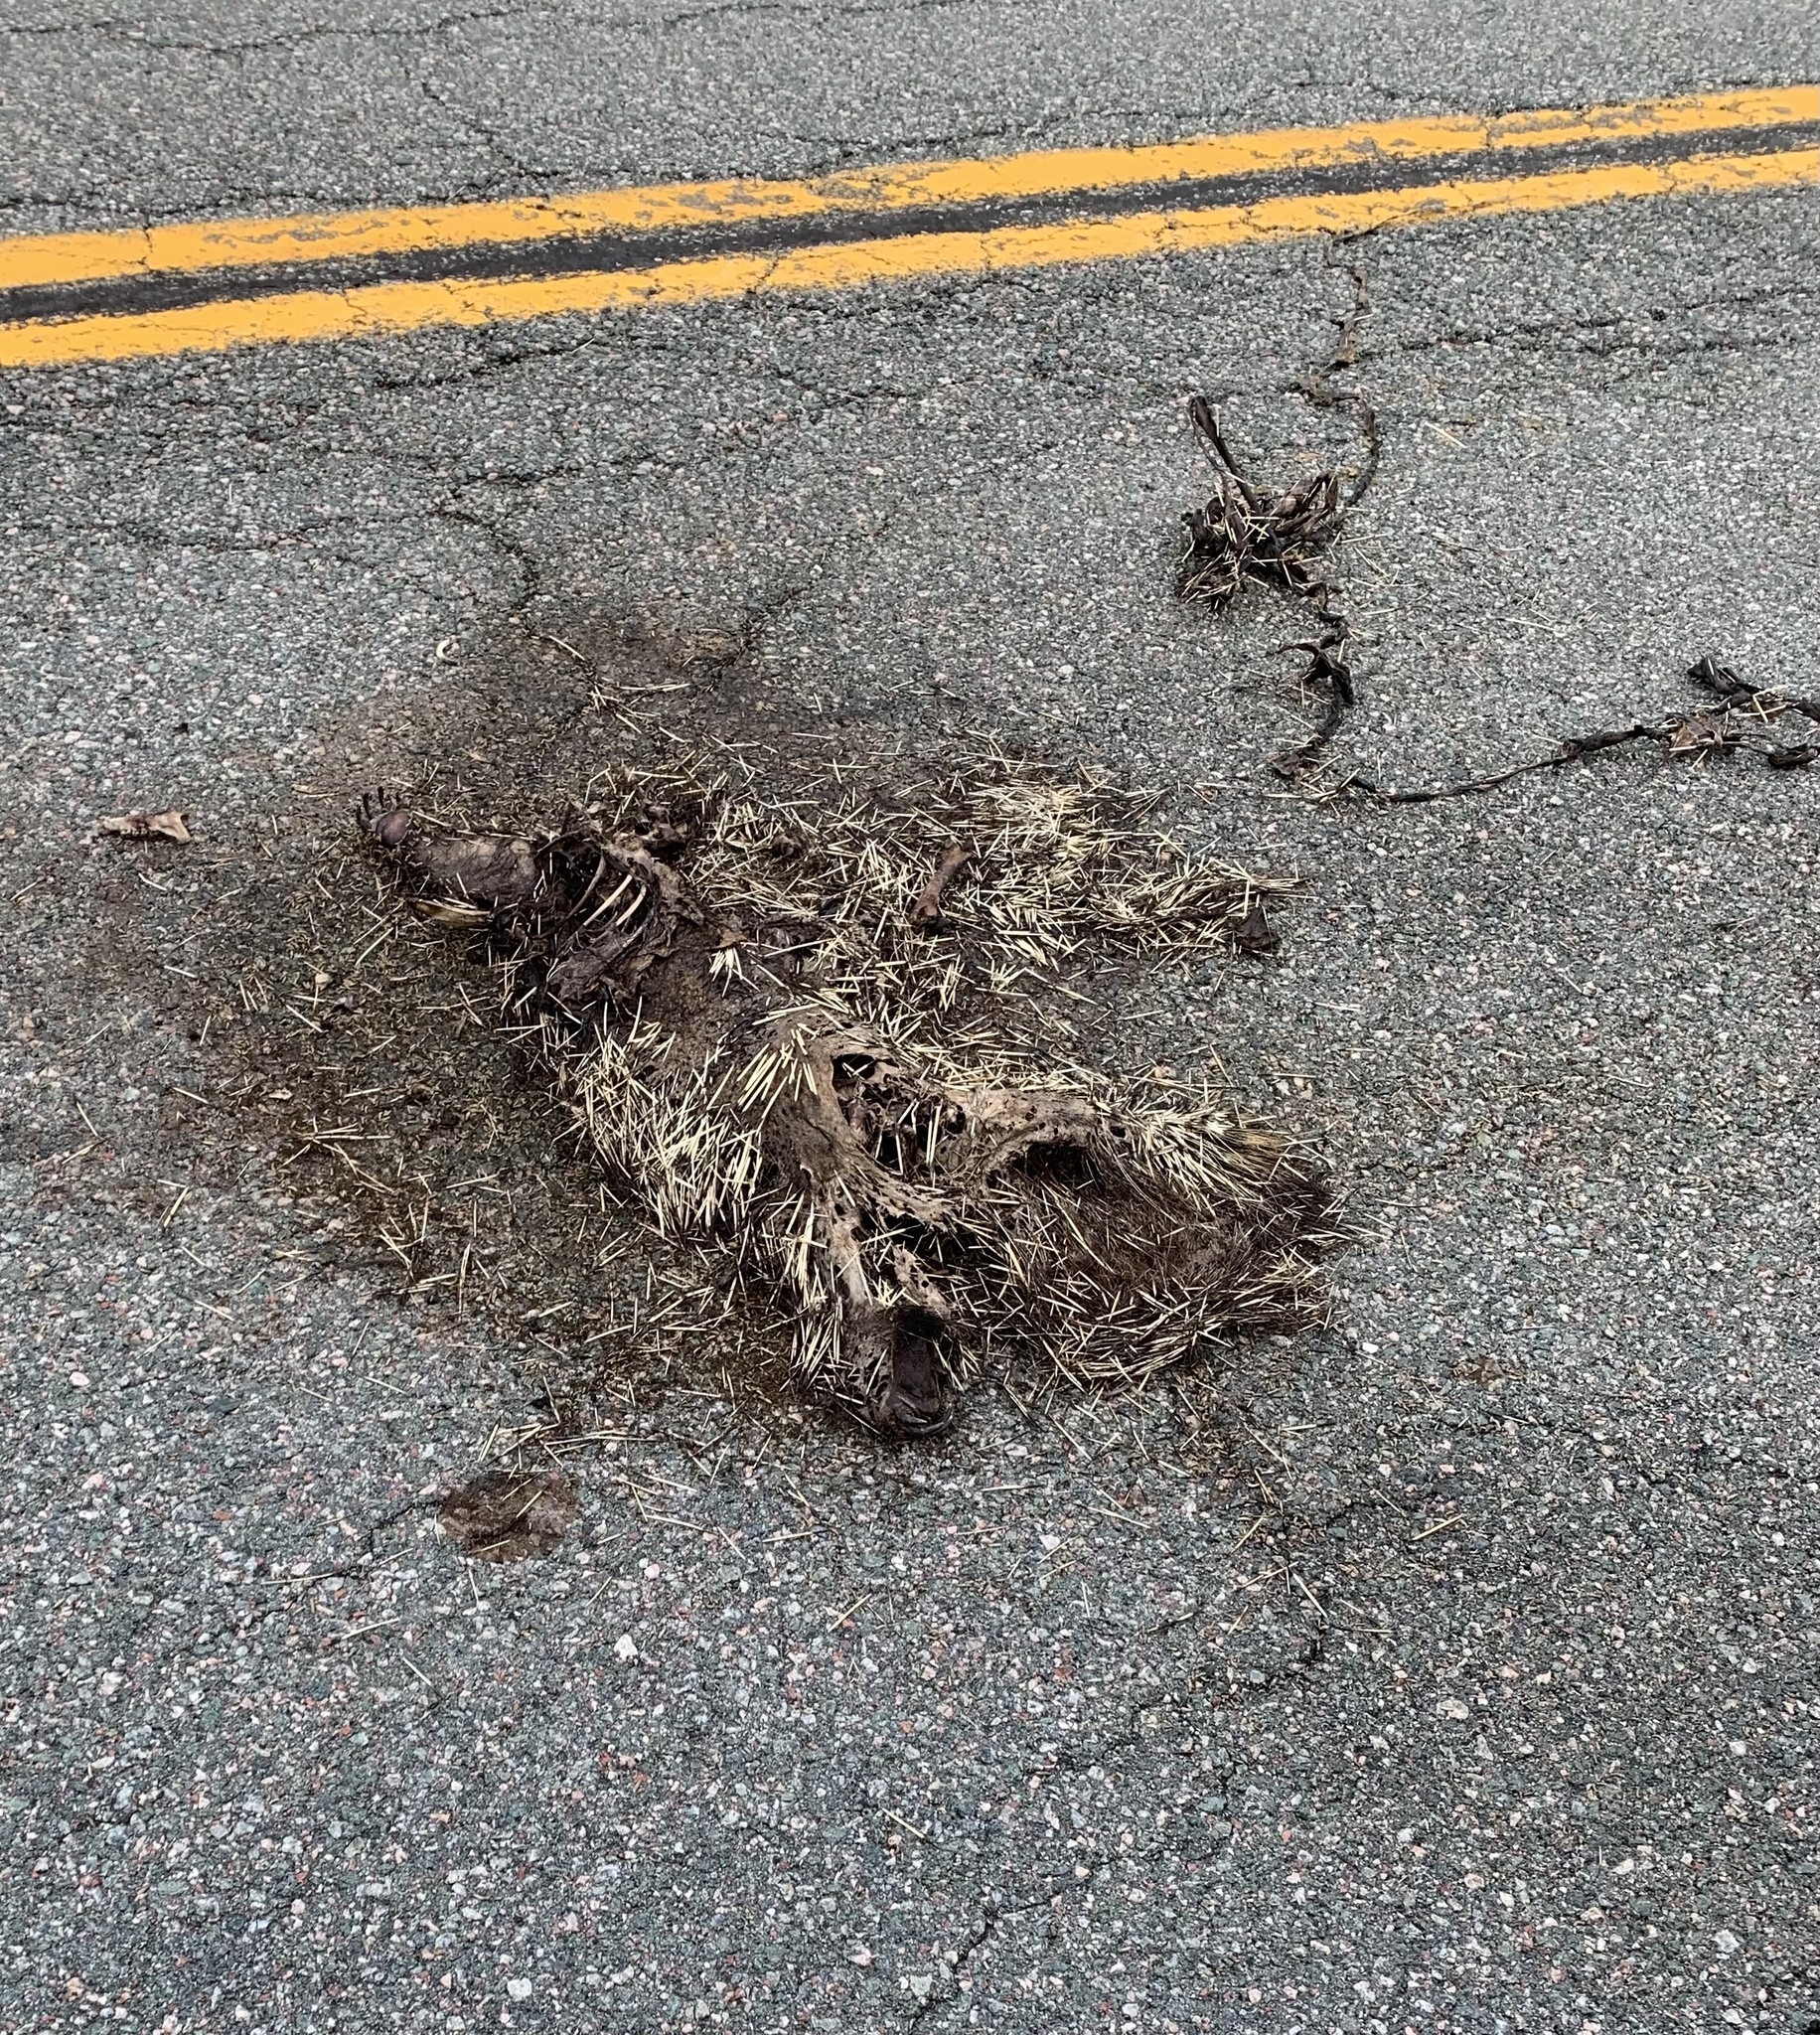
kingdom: Animalia
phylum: Chordata
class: Mammalia
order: Rodentia
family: Erethizontidae
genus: Erethizon
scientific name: Erethizon dorsatus
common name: North american porcupine
